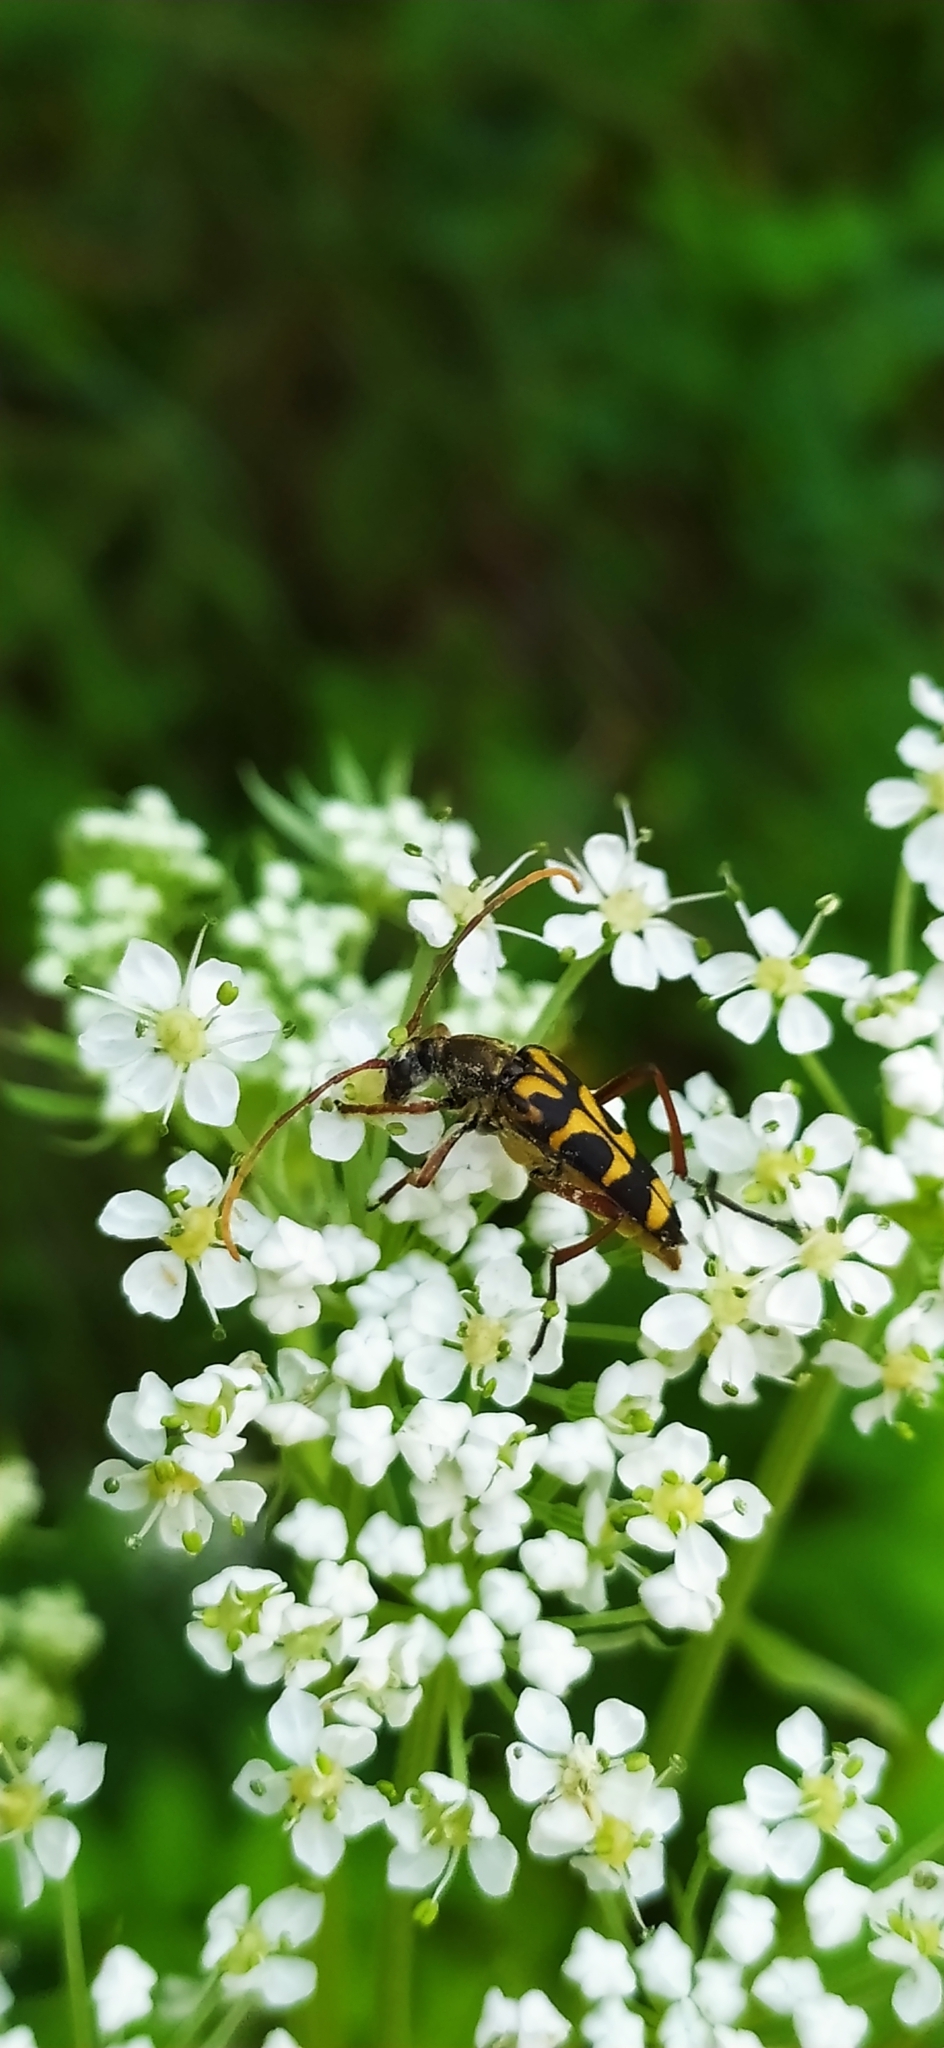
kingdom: Animalia
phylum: Arthropoda
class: Insecta
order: Coleoptera
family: Cerambycidae
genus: Leptura
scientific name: Leptura annularis
